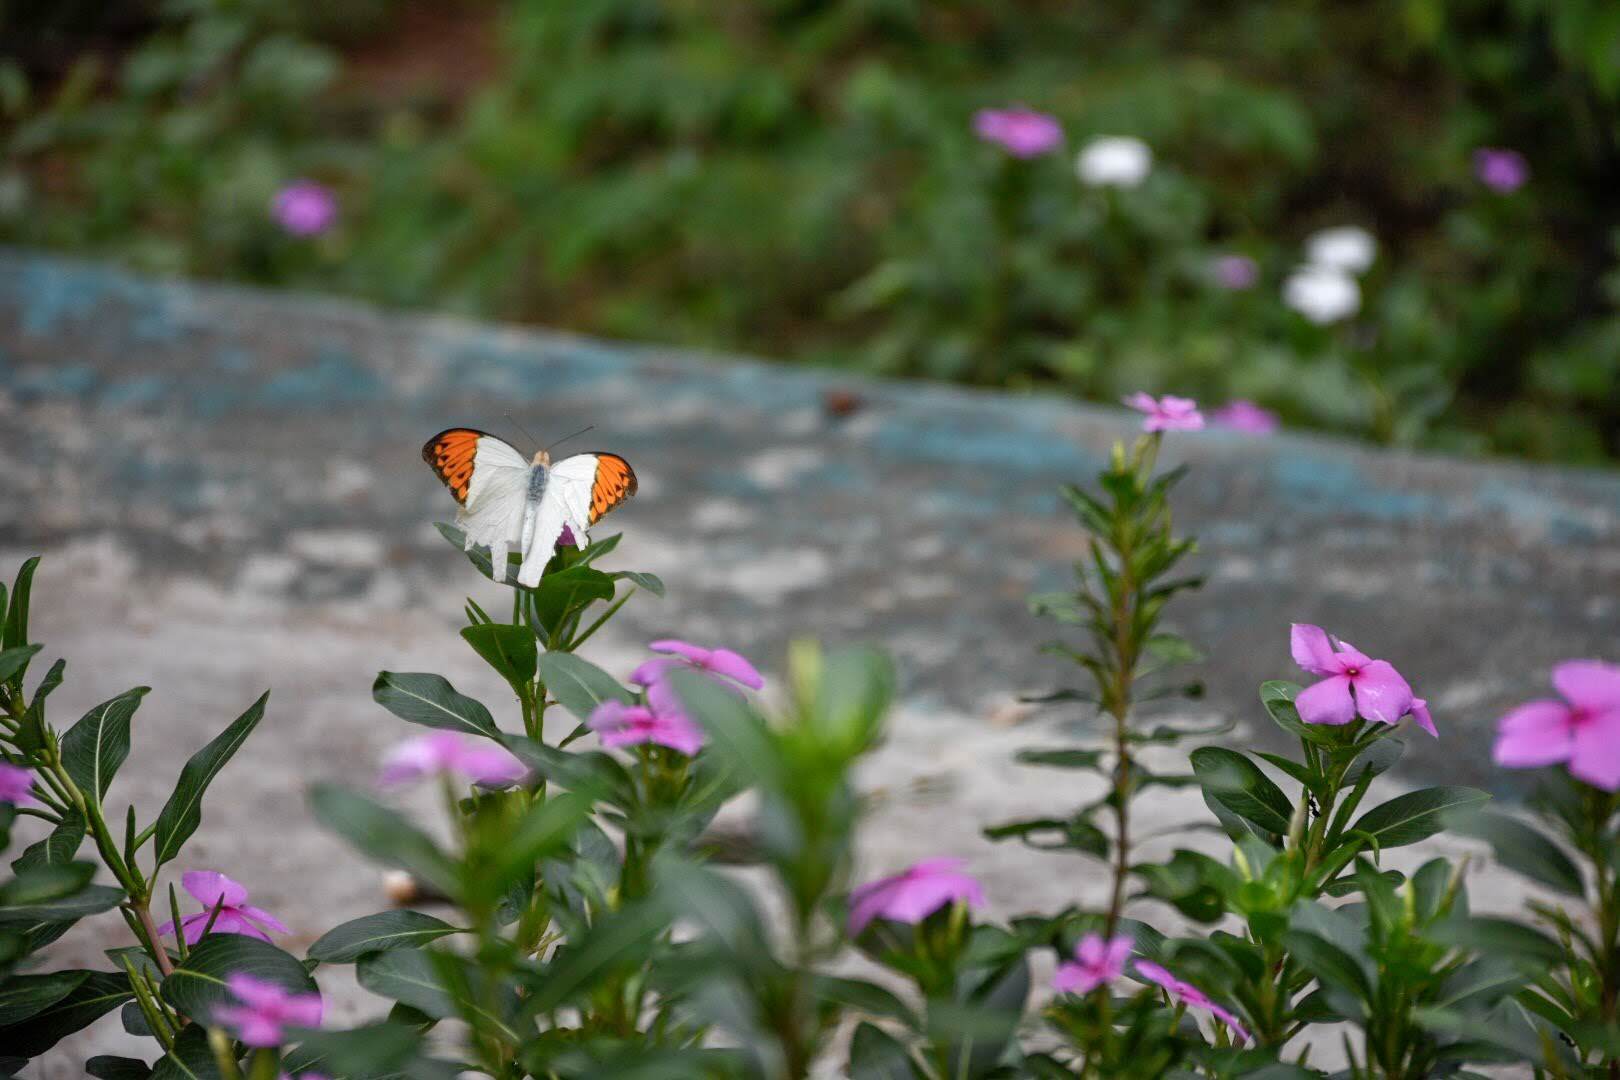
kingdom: Animalia
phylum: Arthropoda
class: Insecta
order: Lepidoptera
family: Pieridae
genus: Hebomoia
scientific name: Hebomoia glaucippe
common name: Great orange tip
